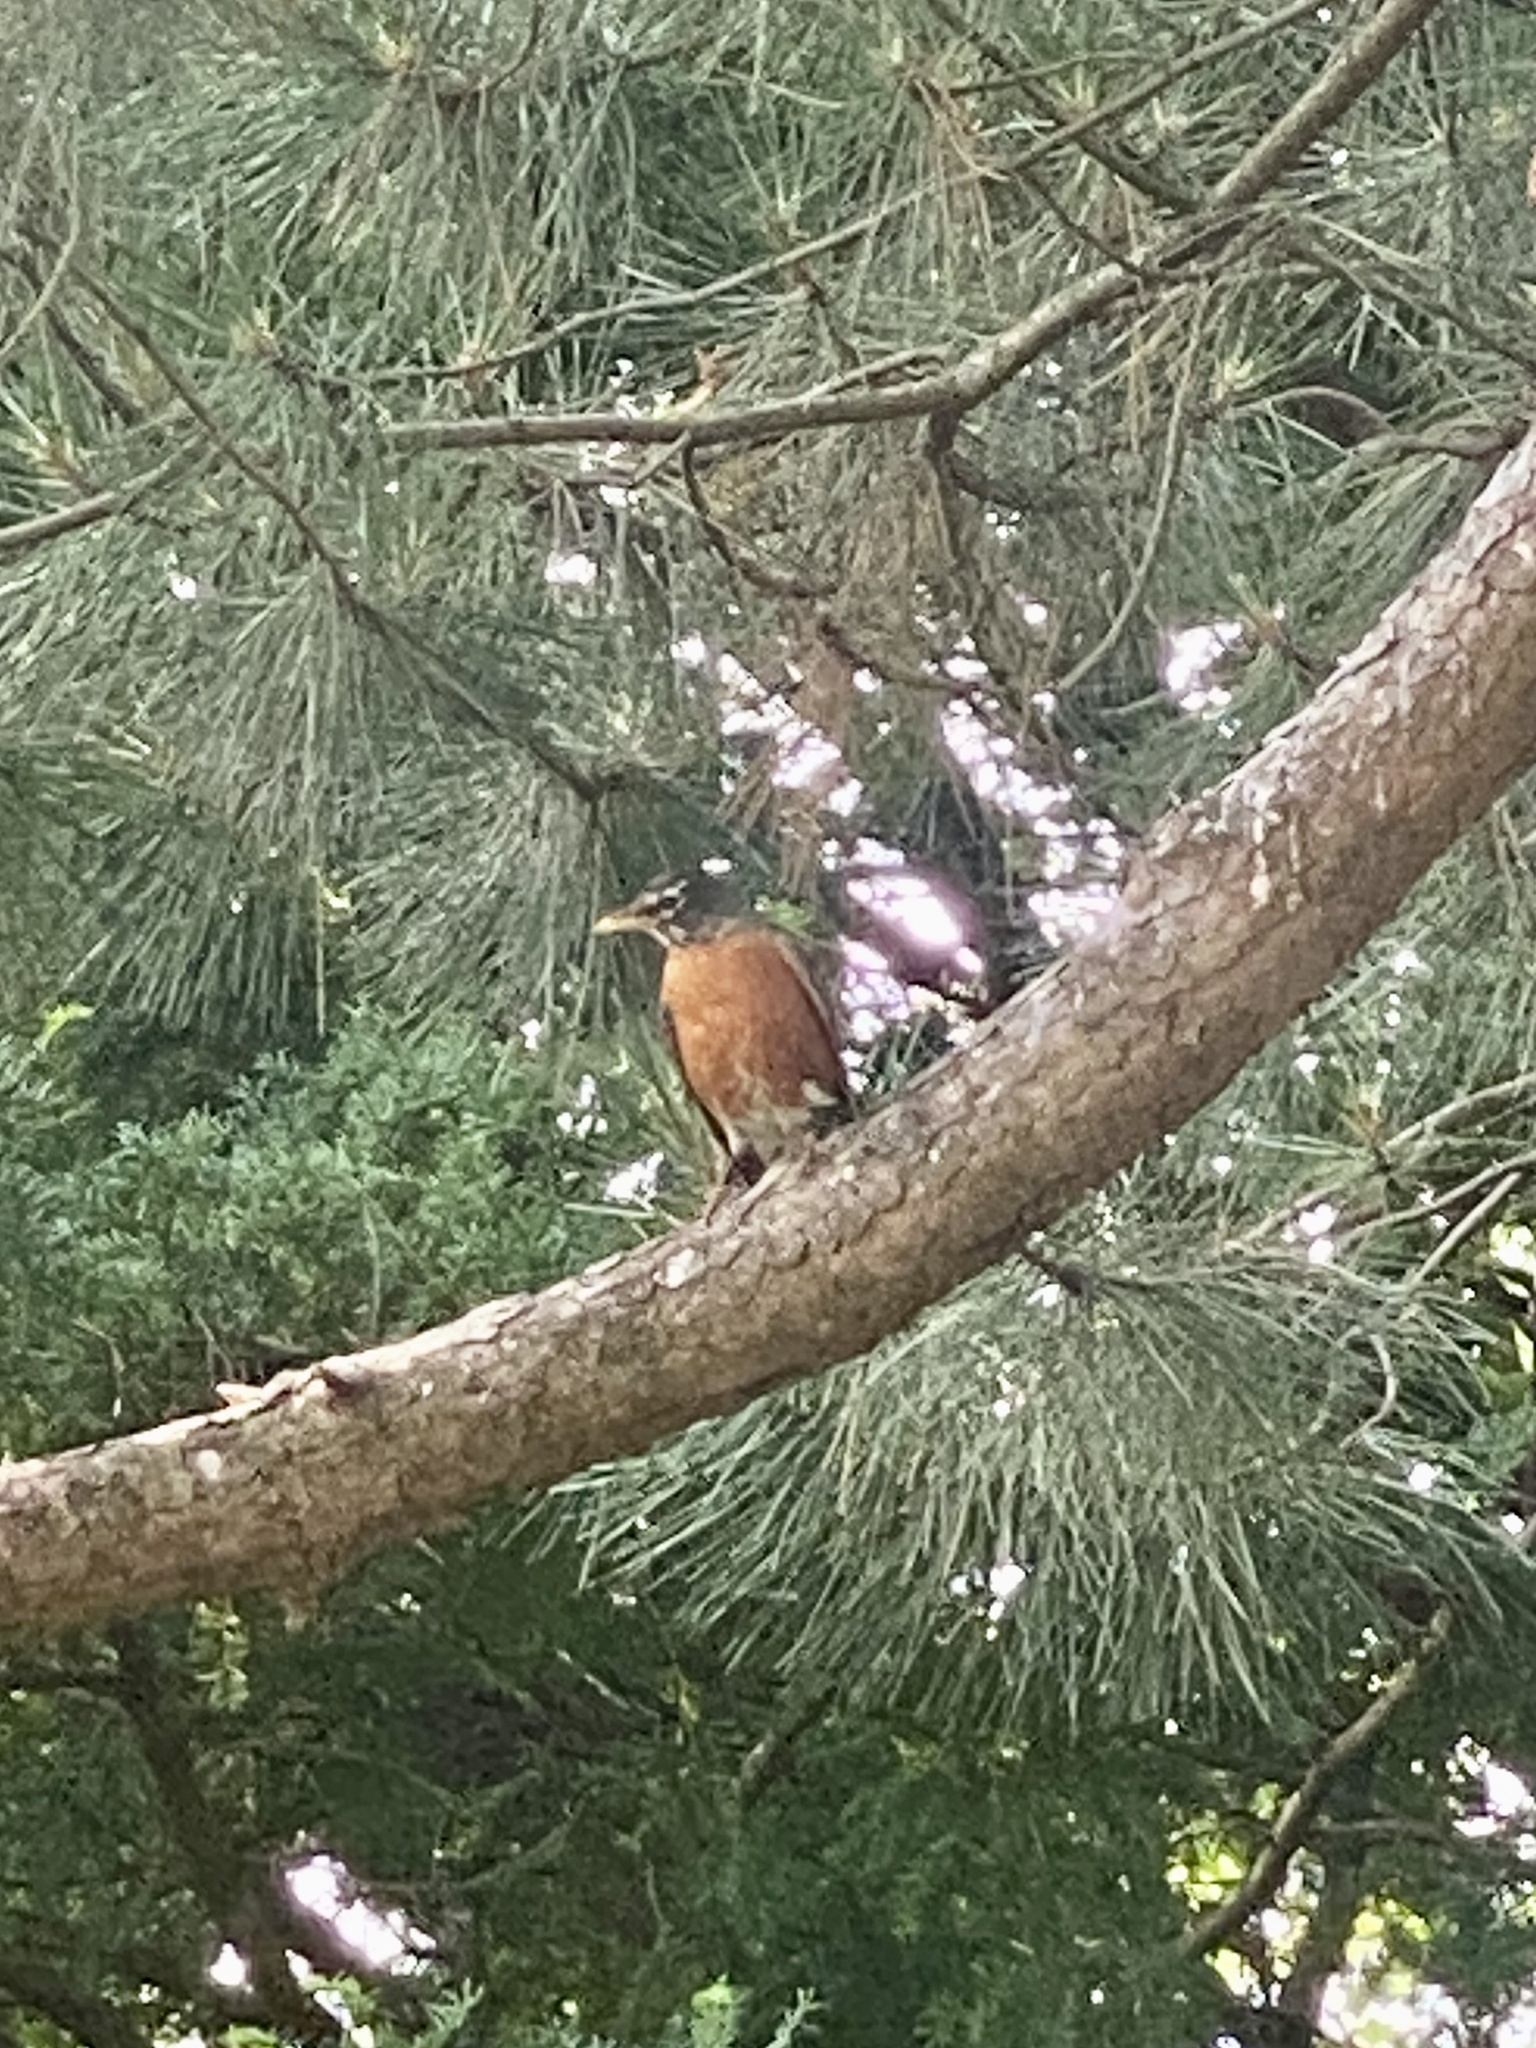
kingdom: Animalia
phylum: Chordata
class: Aves
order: Passeriformes
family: Turdidae
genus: Turdus
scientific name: Turdus migratorius
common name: American robin
